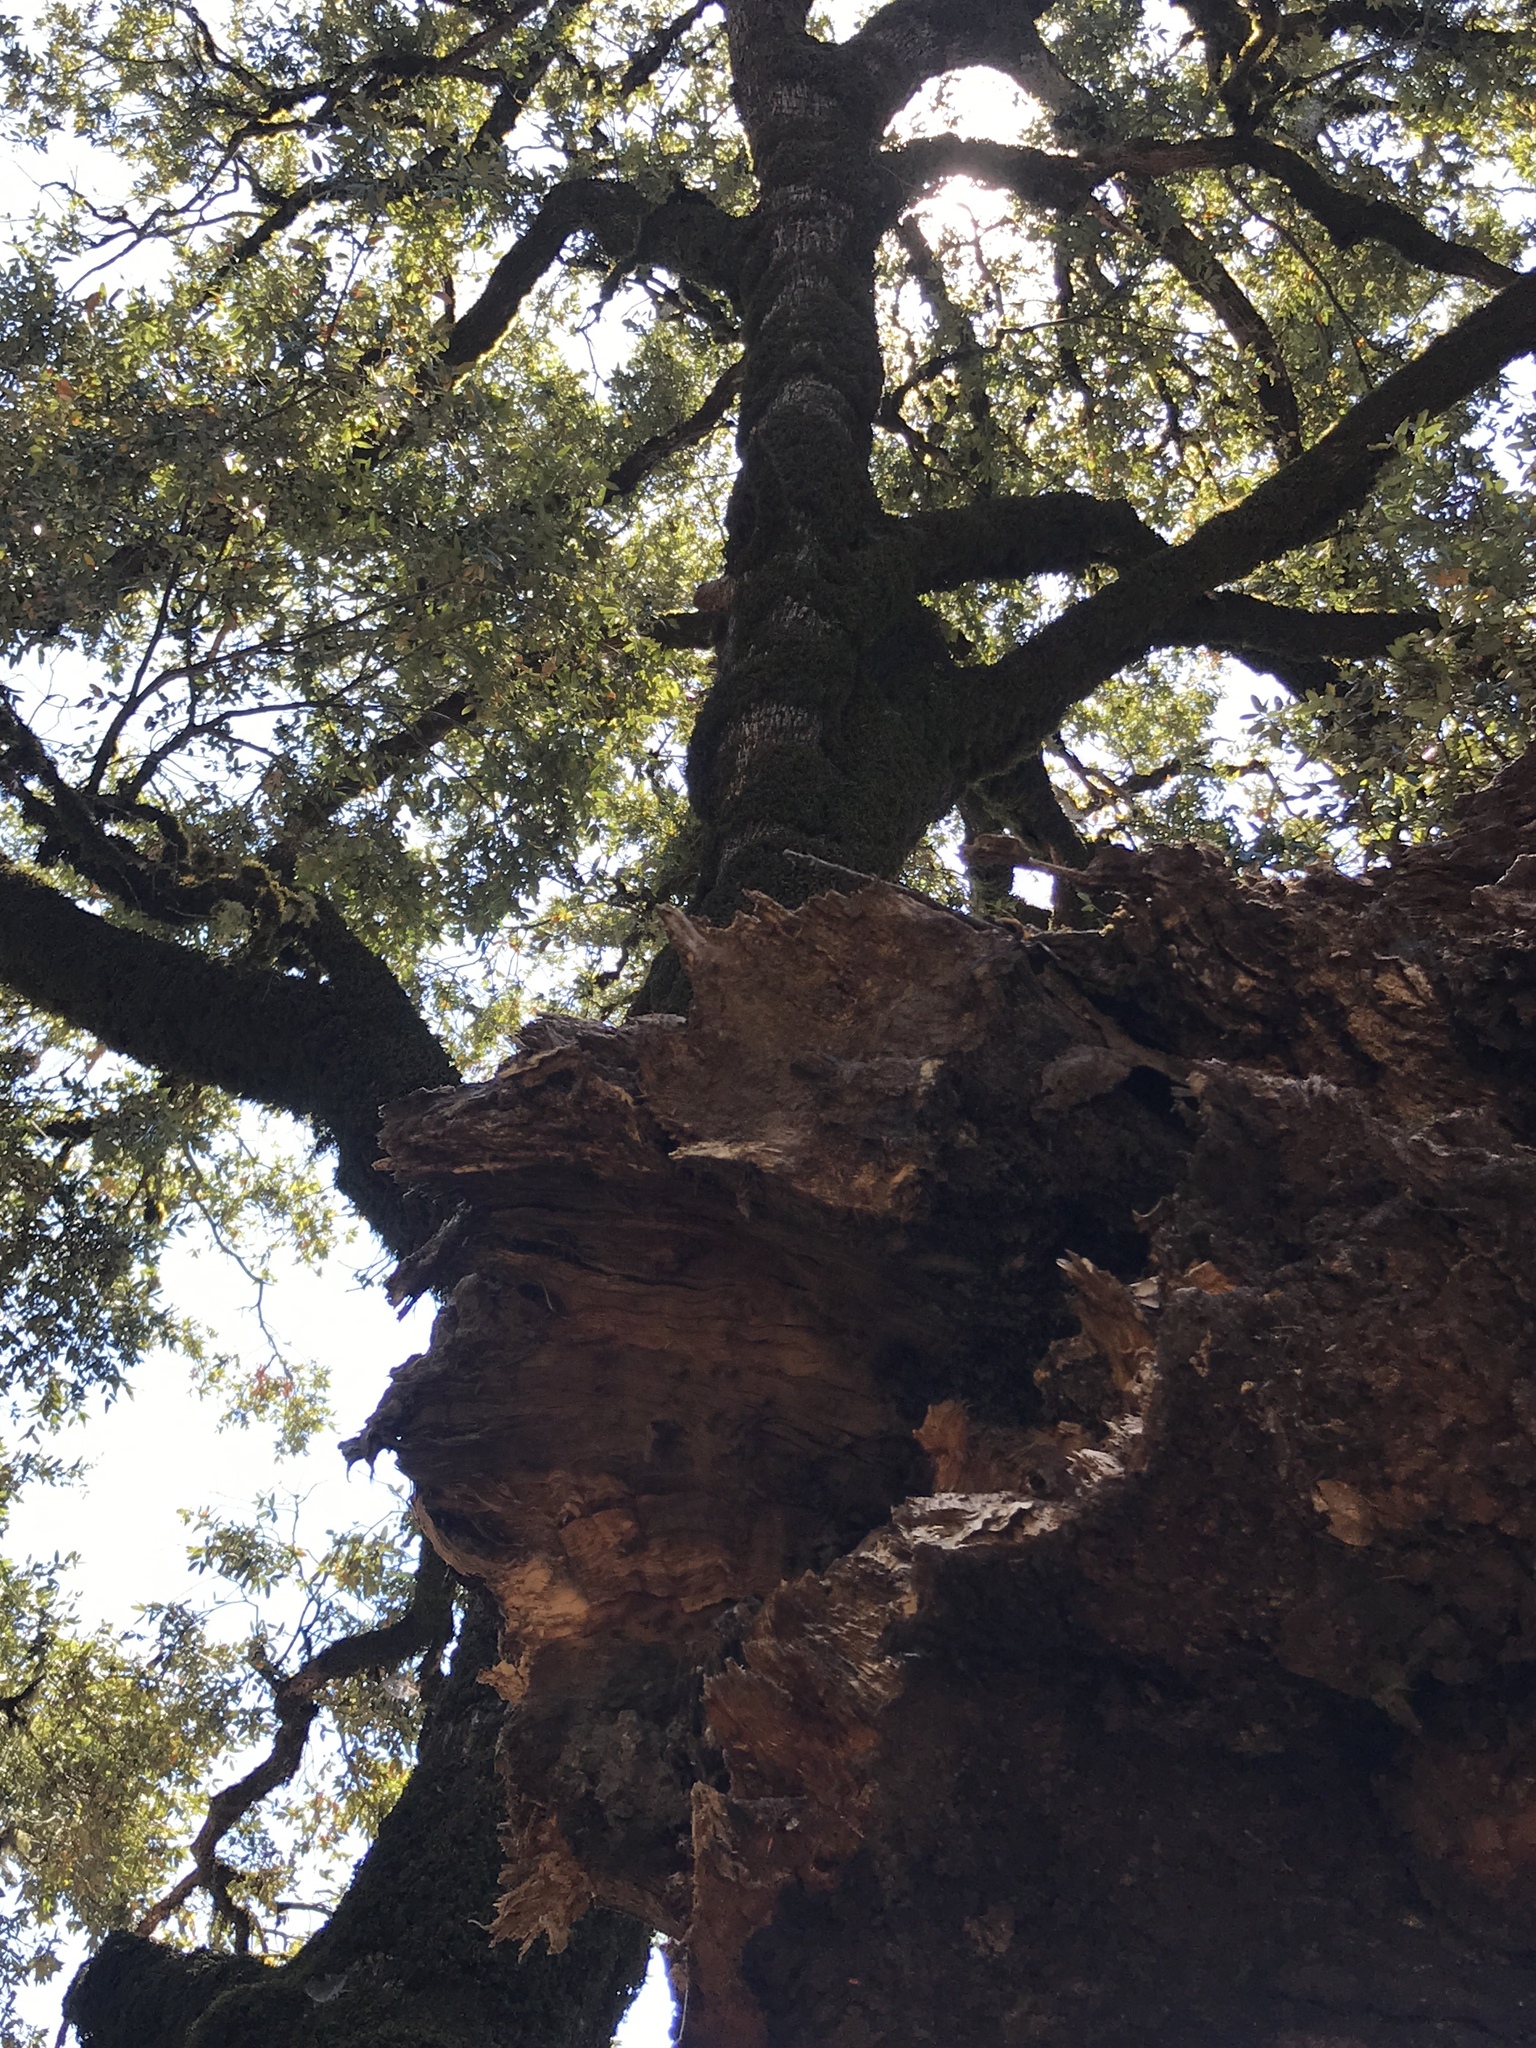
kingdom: Plantae
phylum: Tracheophyta
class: Magnoliopsida
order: Fagales
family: Fagaceae
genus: Quercus
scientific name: Quercus chrysolepis
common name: Canyon live oak
